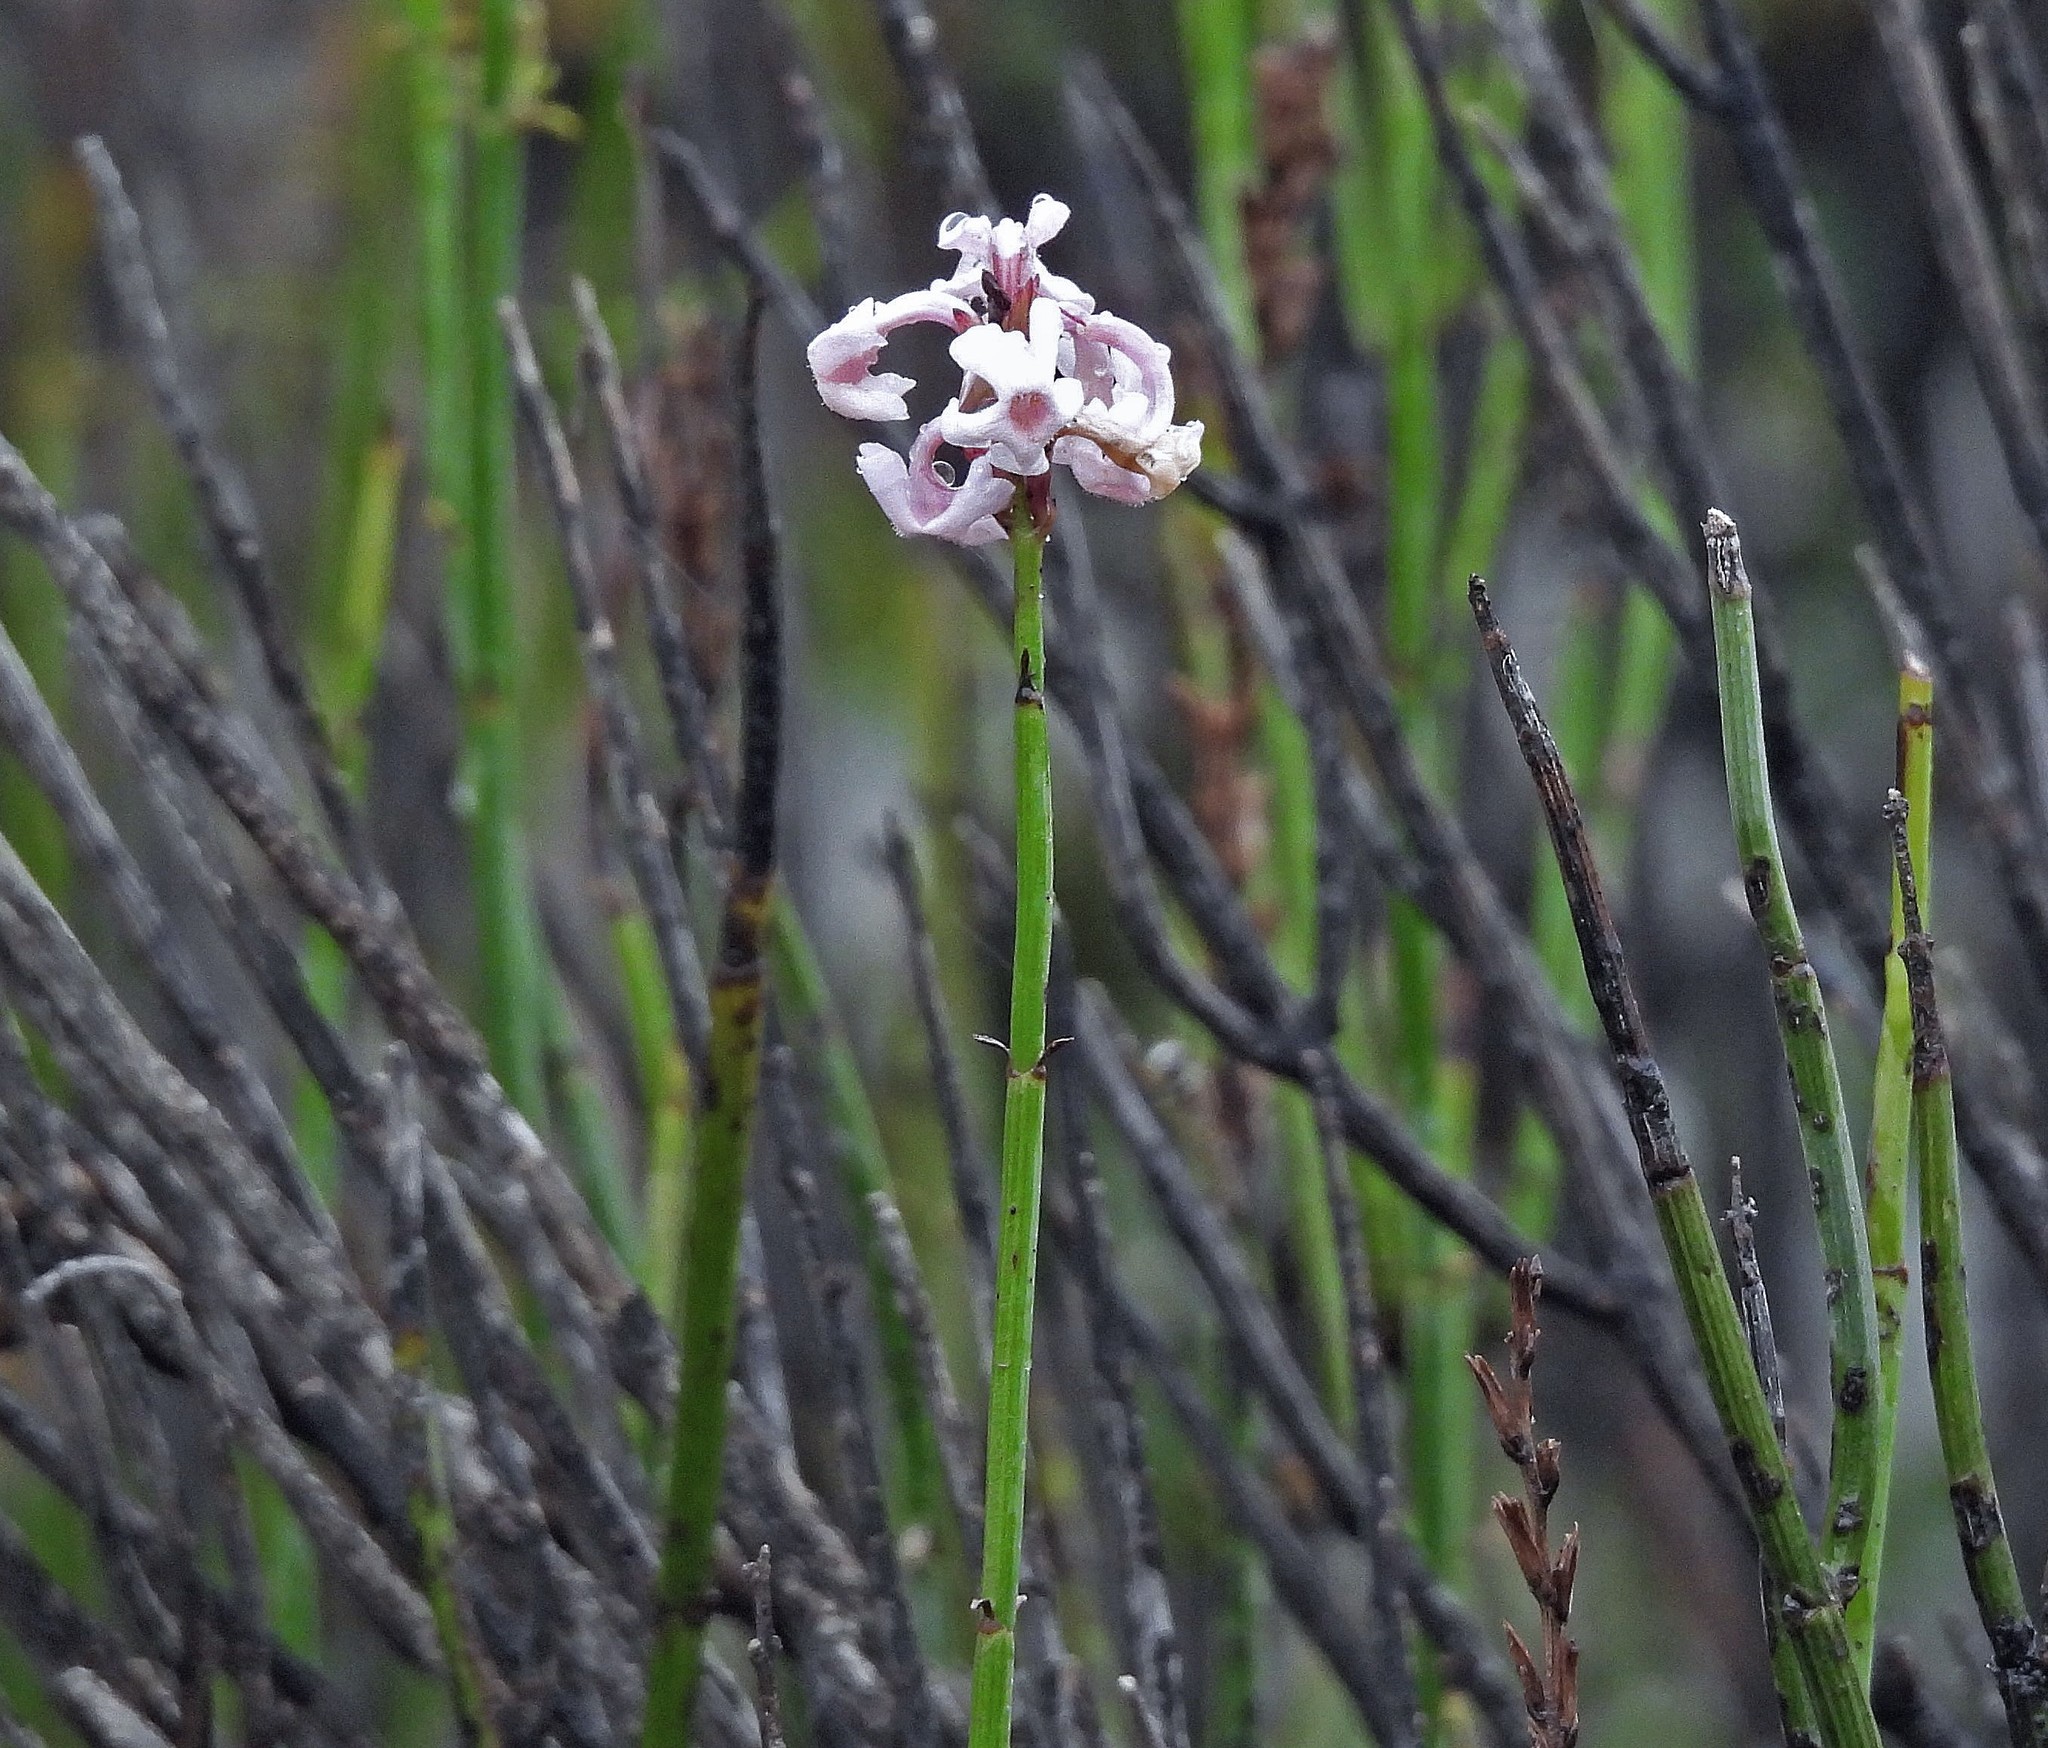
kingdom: Plantae
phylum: Tracheophyta
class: Magnoliopsida
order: Lamiales
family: Verbenaceae
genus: Neosparton
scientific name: Neosparton aphyllum
